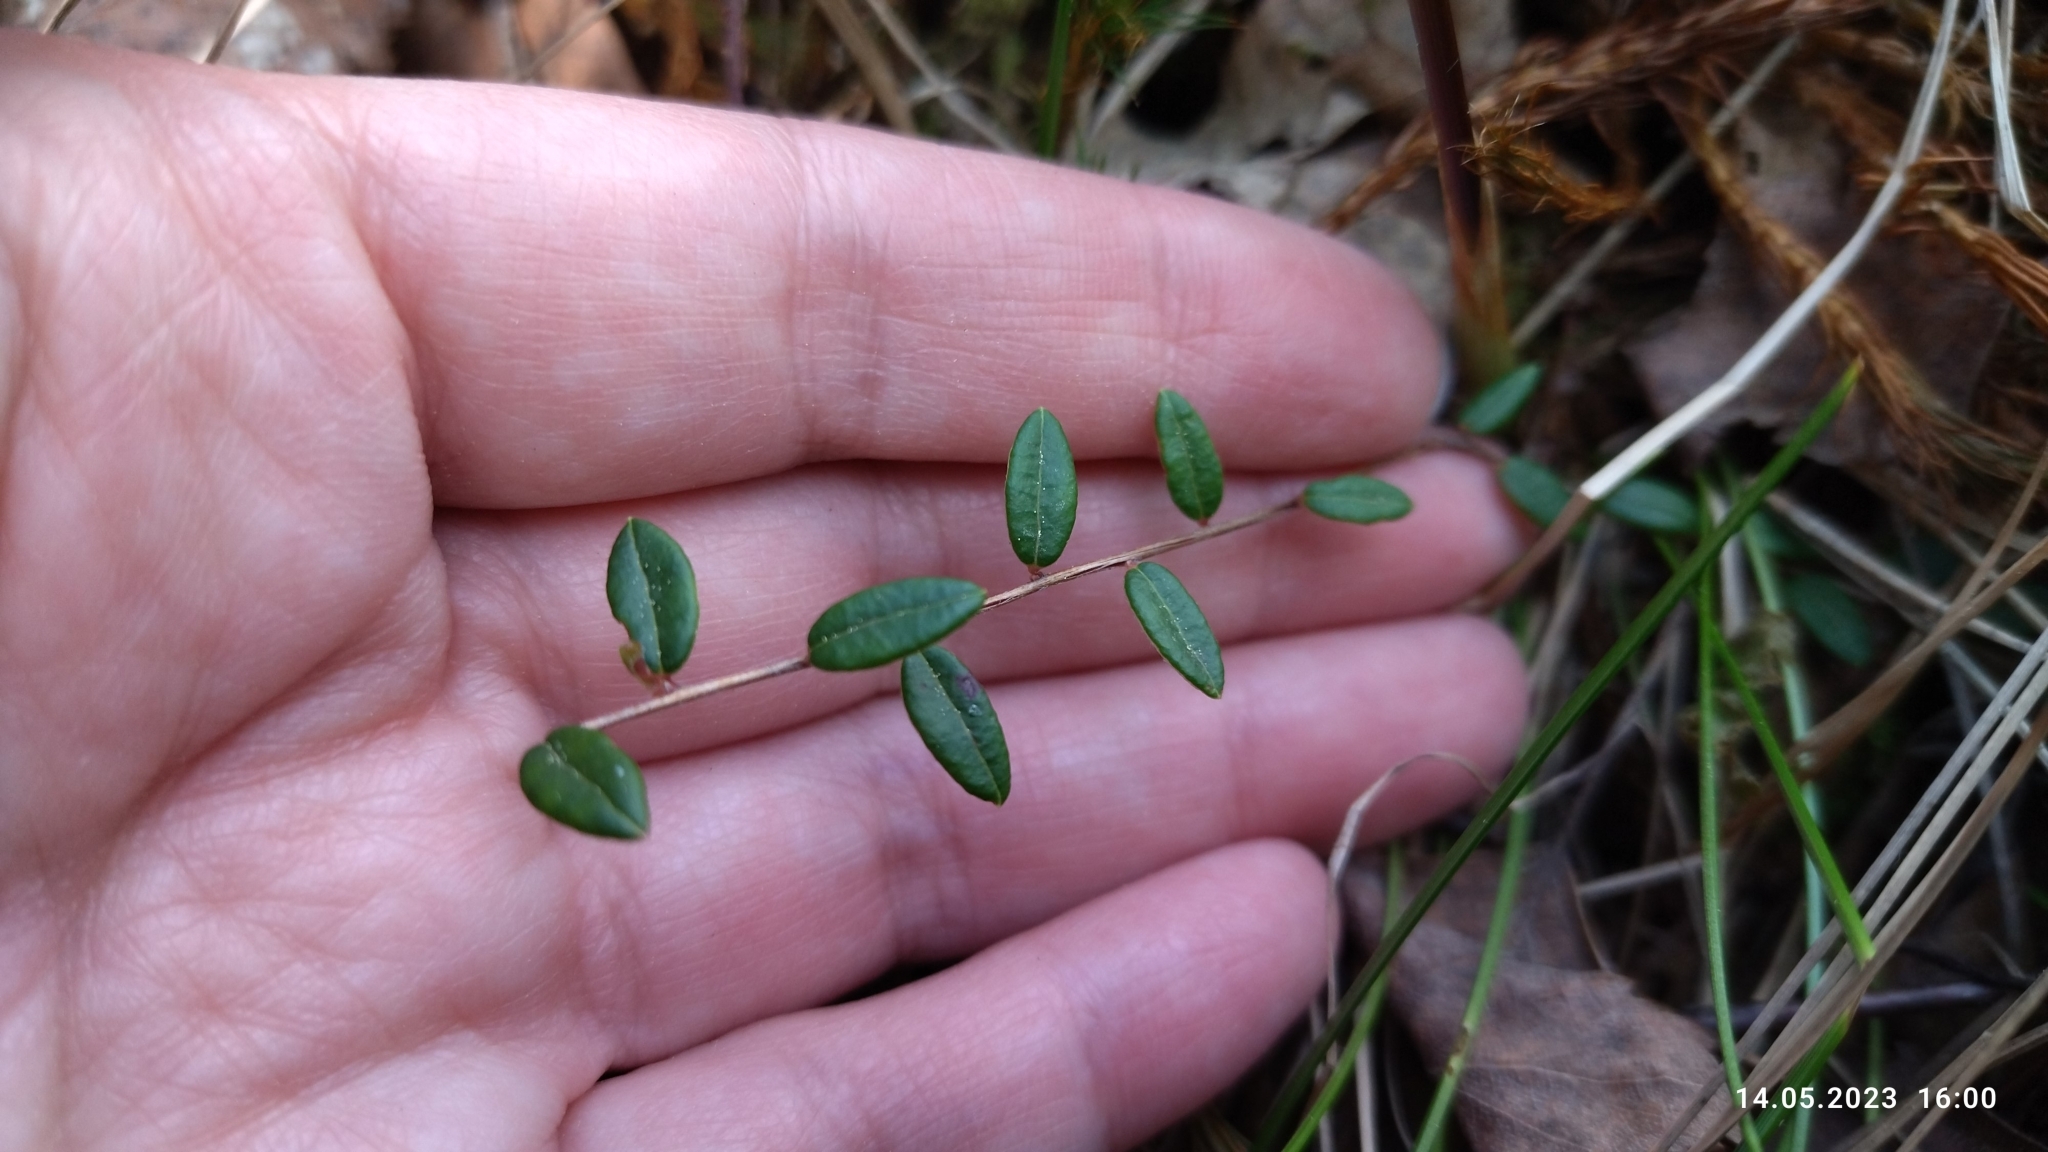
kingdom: Plantae
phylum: Tracheophyta
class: Magnoliopsida
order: Ericales
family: Ericaceae
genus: Vaccinium
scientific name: Vaccinium oxycoccos
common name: Cranberry
